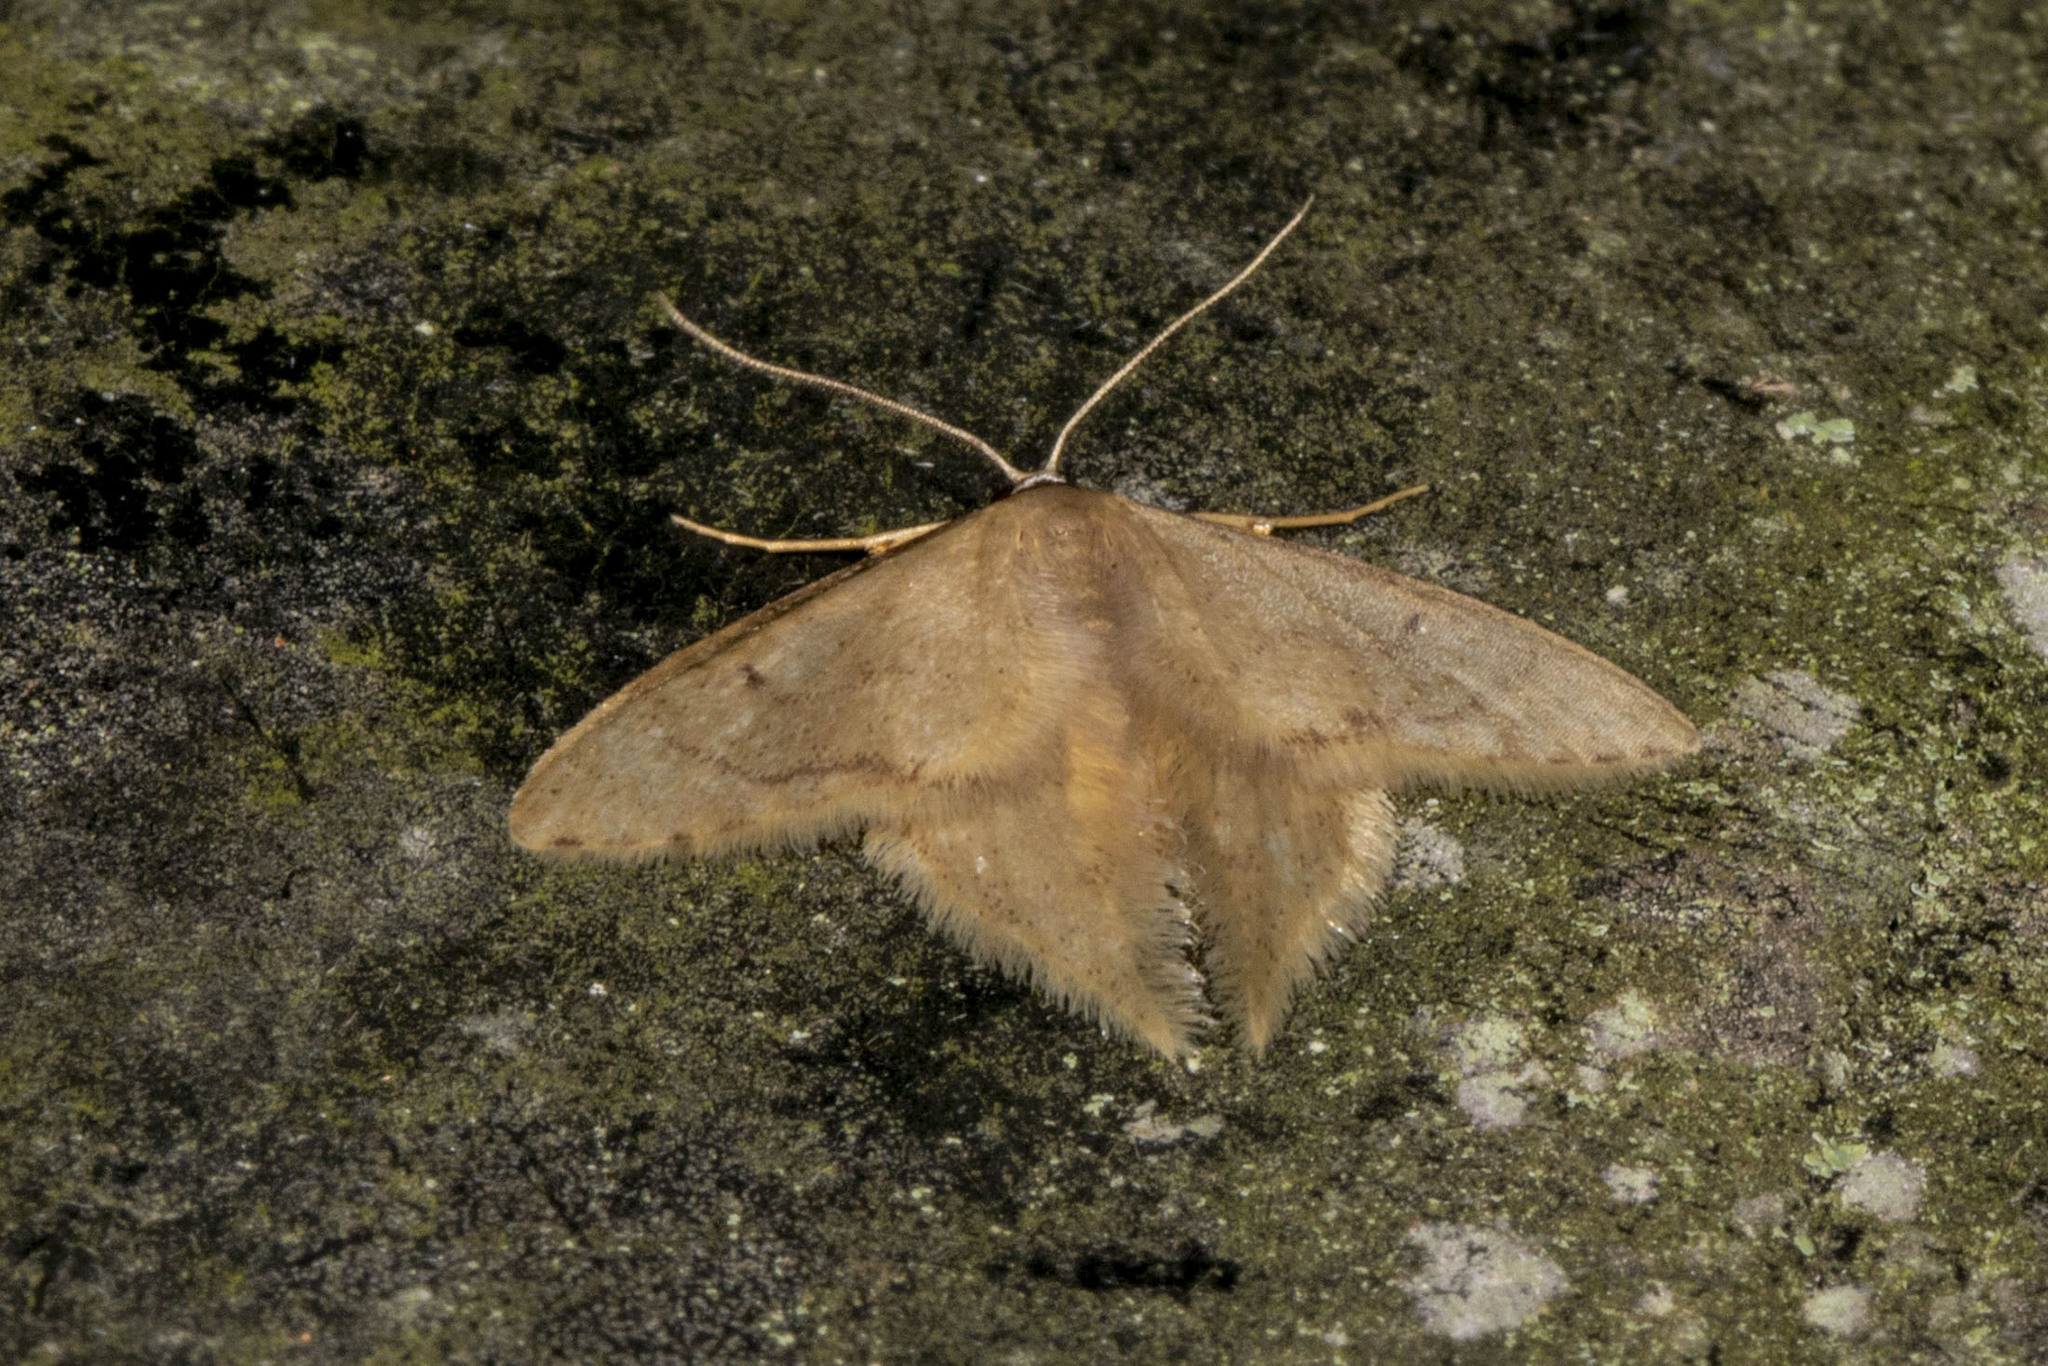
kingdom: Animalia
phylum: Arthropoda
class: Insecta
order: Lepidoptera
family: Geometridae
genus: Idaea
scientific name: Idaea speciosa
